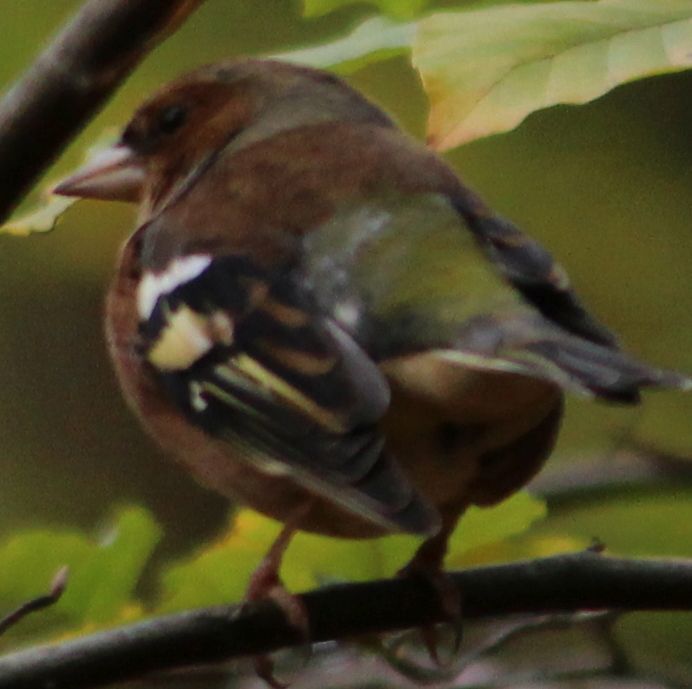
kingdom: Animalia
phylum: Chordata
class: Aves
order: Passeriformes
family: Fringillidae
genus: Fringilla
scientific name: Fringilla coelebs
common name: Common chaffinch
